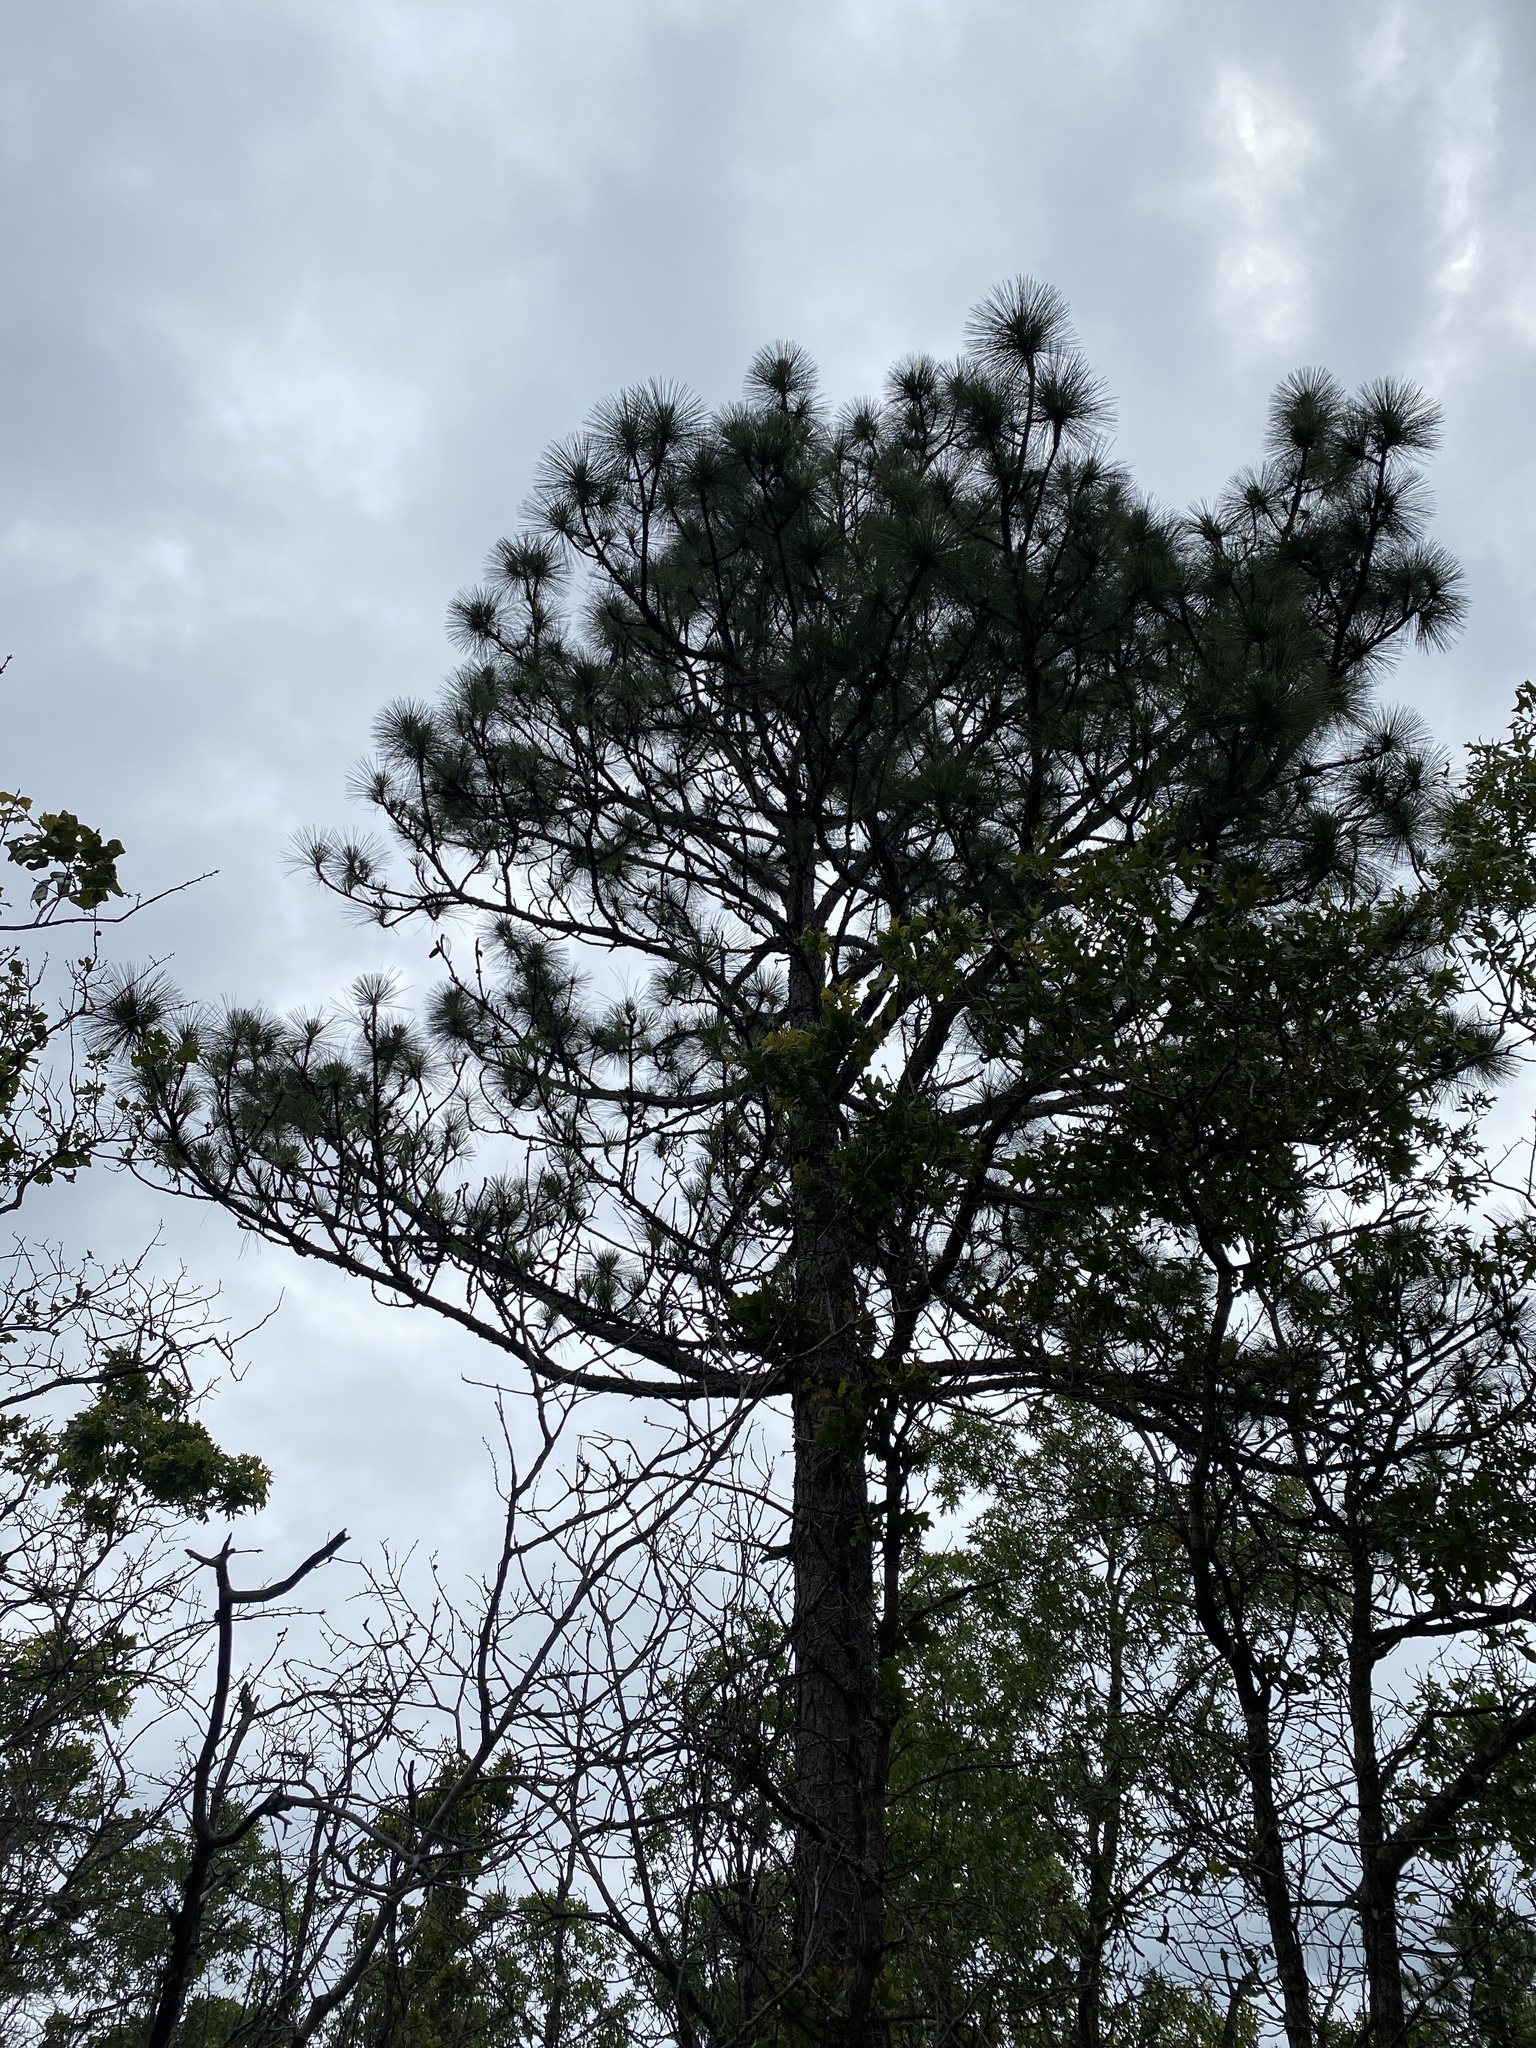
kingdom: Plantae
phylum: Tracheophyta
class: Pinopsida
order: Pinales
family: Pinaceae
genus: Pinus
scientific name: Pinus palustris
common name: Longleaf pine
